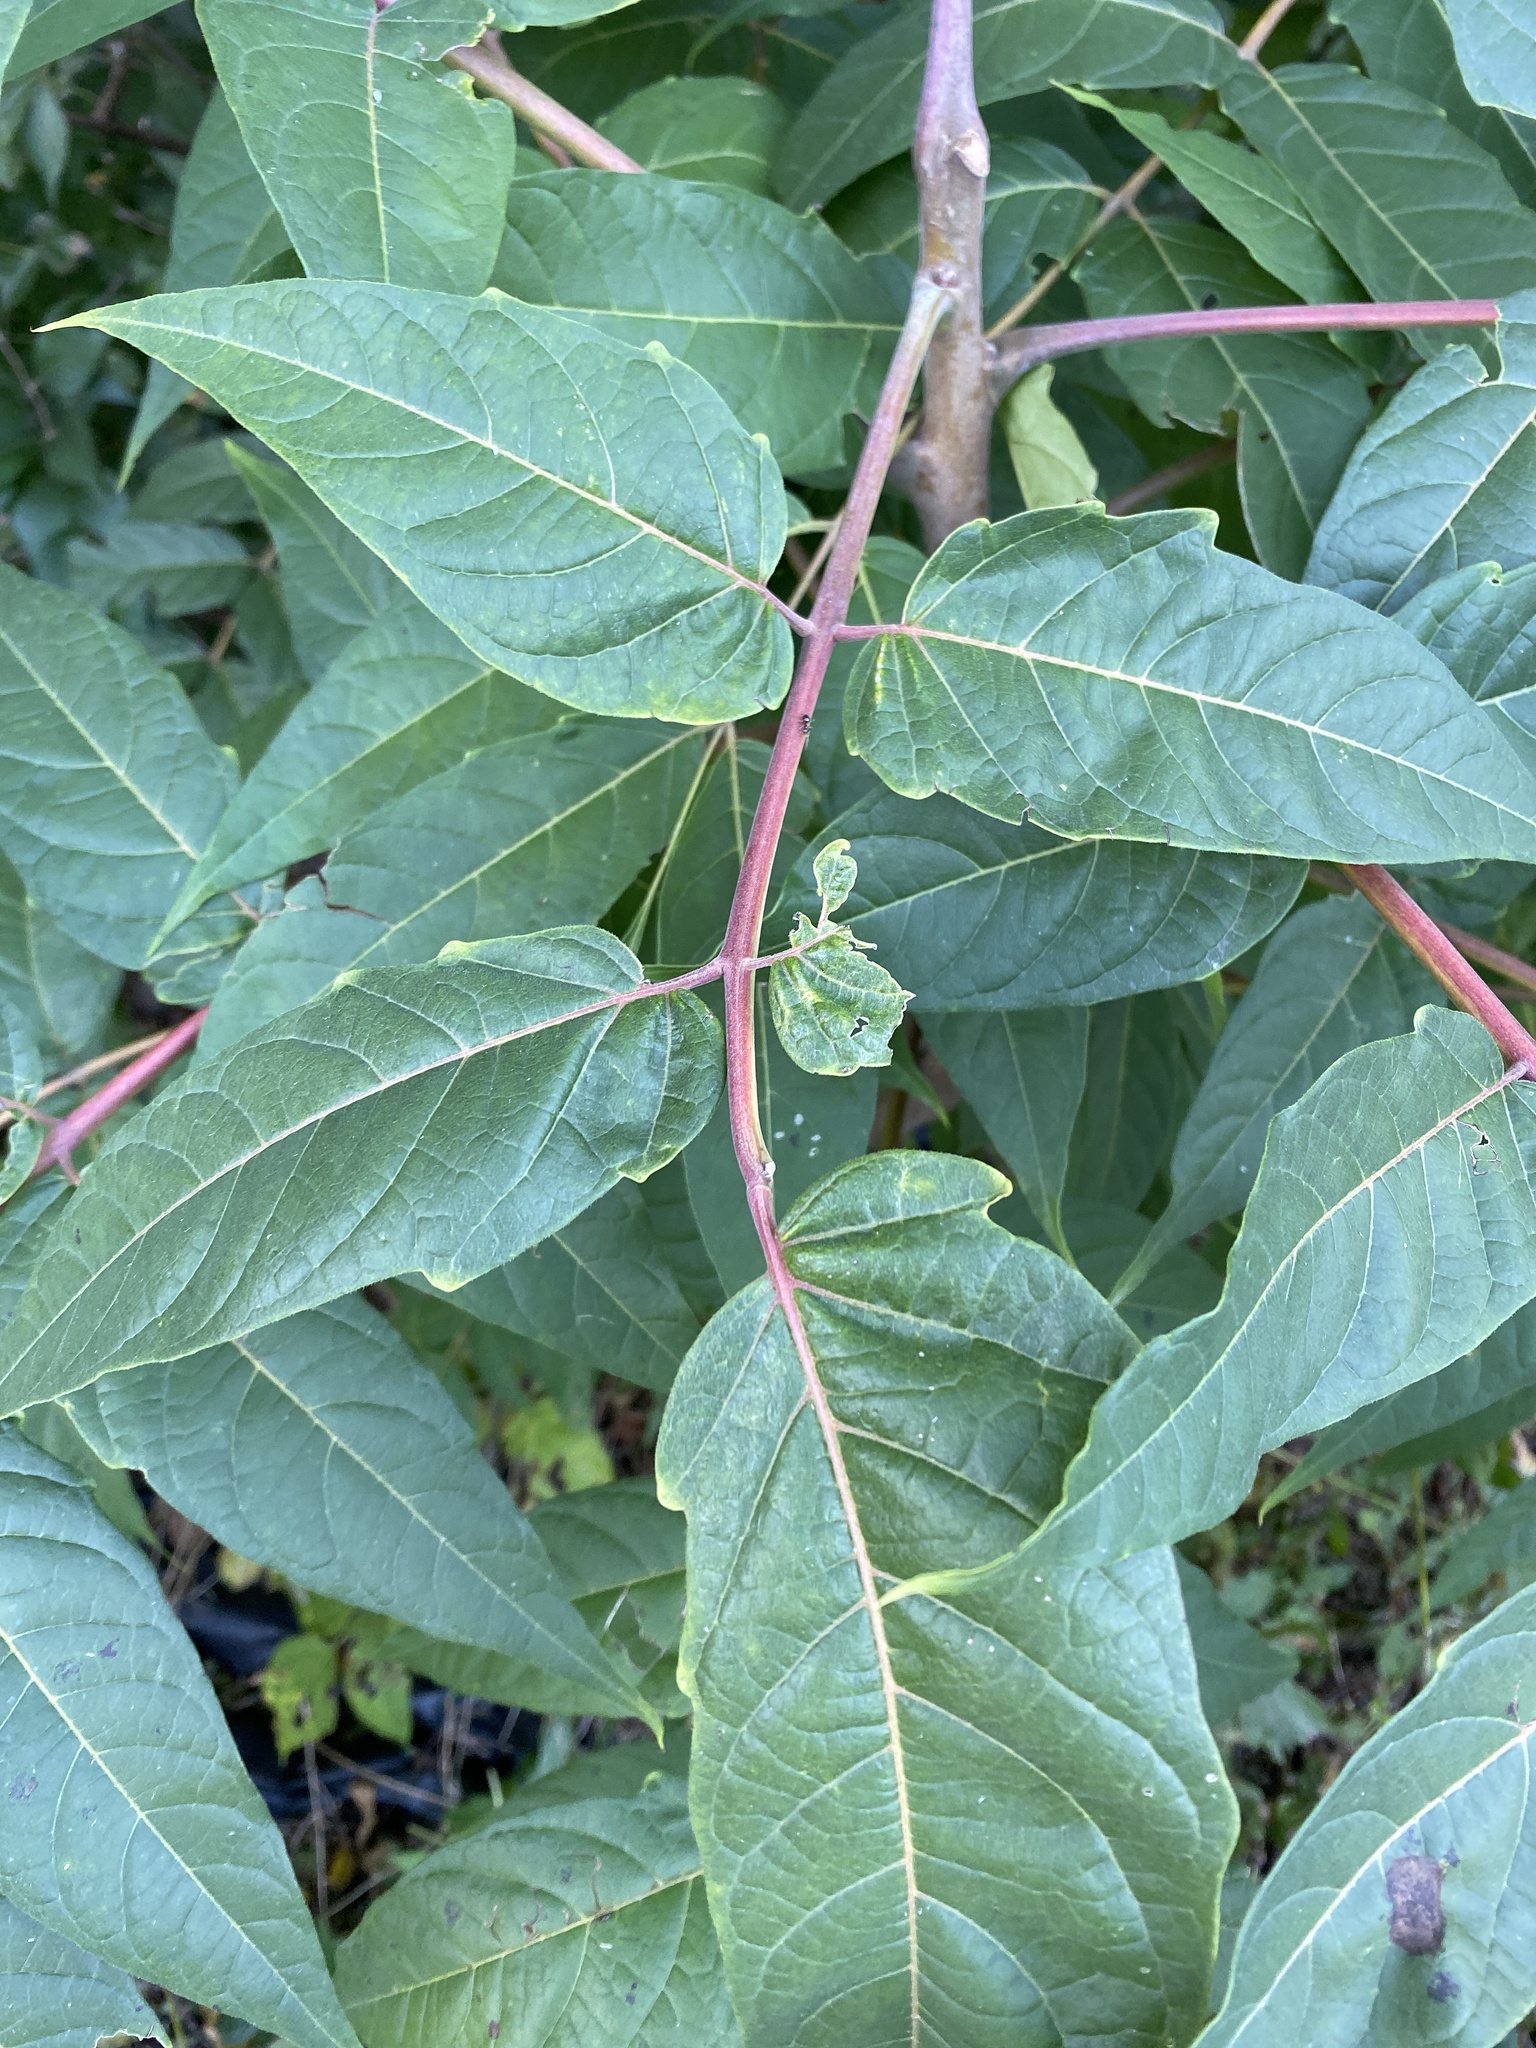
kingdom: Plantae
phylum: Tracheophyta
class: Magnoliopsida
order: Sapindales
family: Simaroubaceae
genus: Ailanthus
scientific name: Ailanthus altissima
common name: Tree-of-heaven
